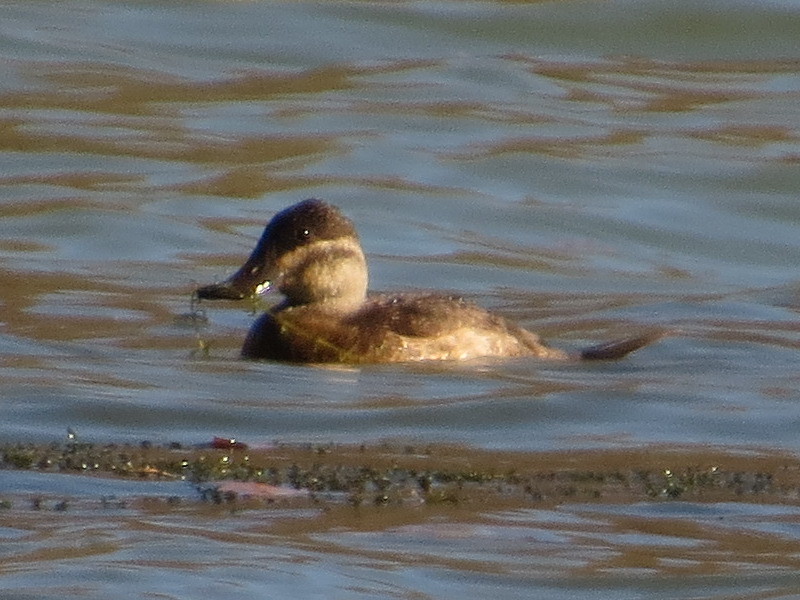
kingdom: Animalia
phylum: Chordata
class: Aves
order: Anseriformes
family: Anatidae
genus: Oxyura
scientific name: Oxyura jamaicensis
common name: Ruddy duck
